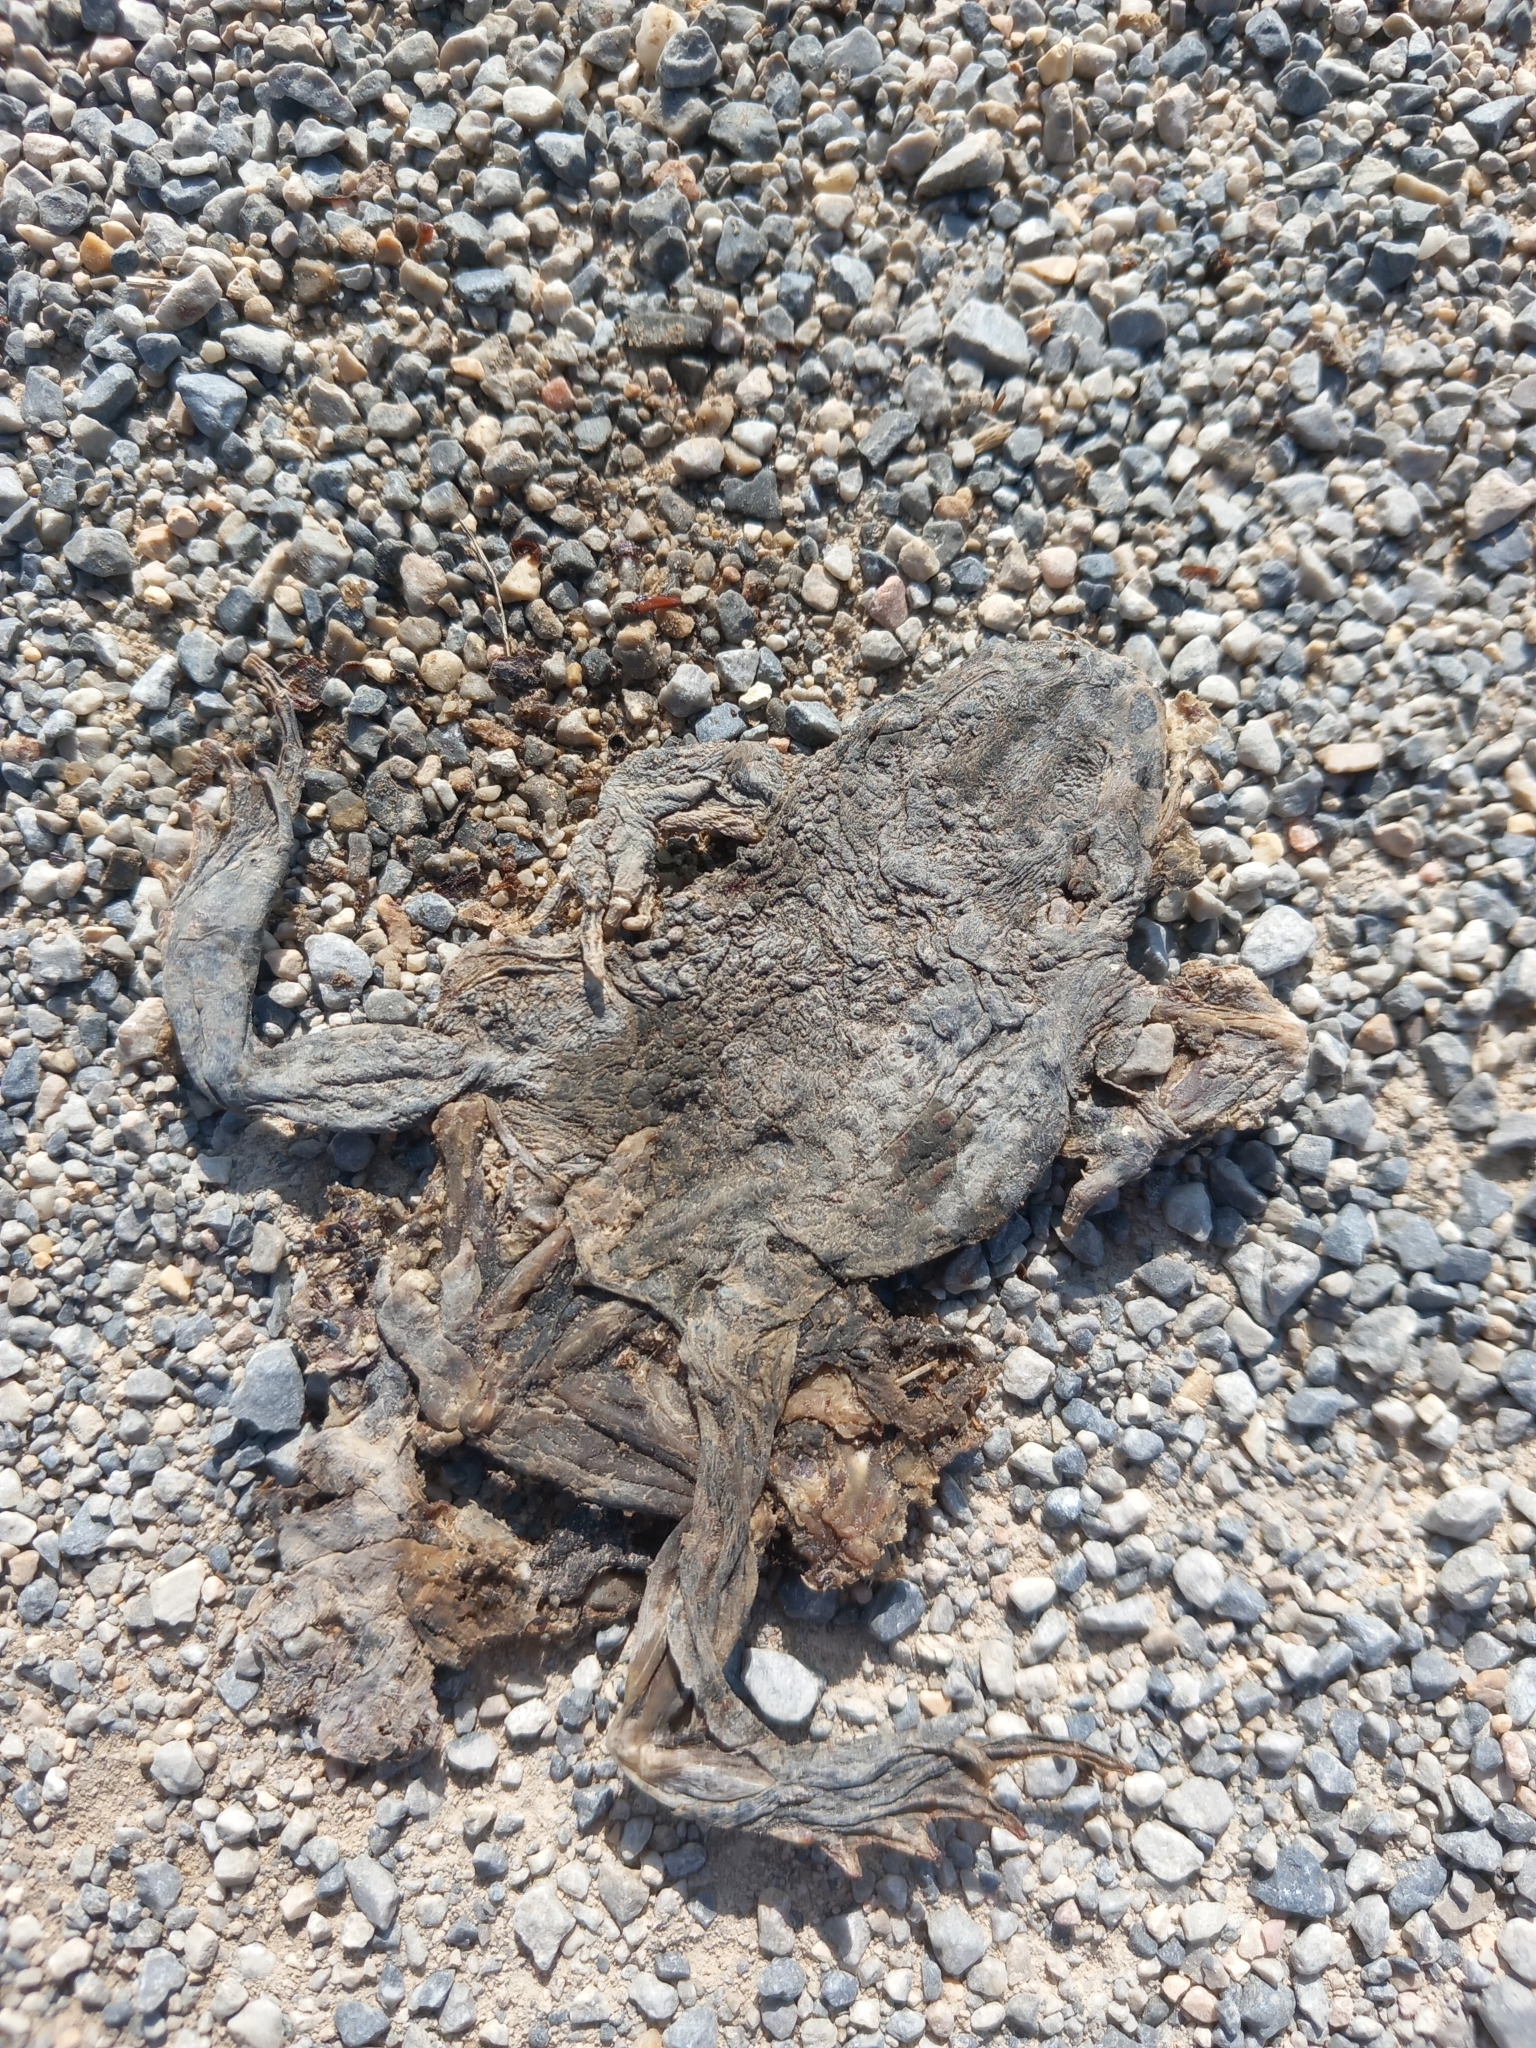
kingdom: Animalia
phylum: Chordata
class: Amphibia
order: Anura
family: Bufonidae
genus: Bufotes
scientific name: Bufotes viridis
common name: European green toad
